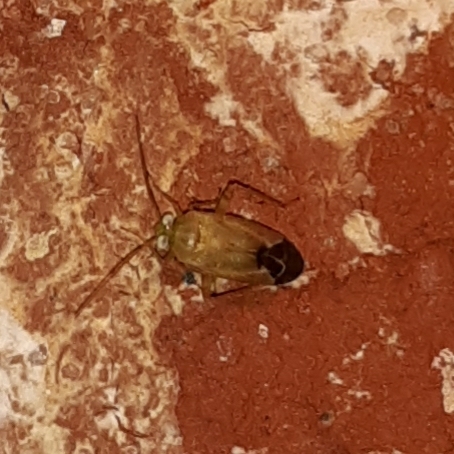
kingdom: Animalia
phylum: Arthropoda
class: Insecta
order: Hemiptera
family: Miridae
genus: Taylorilygus
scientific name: Taylorilygus apicalis
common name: Plant bug
